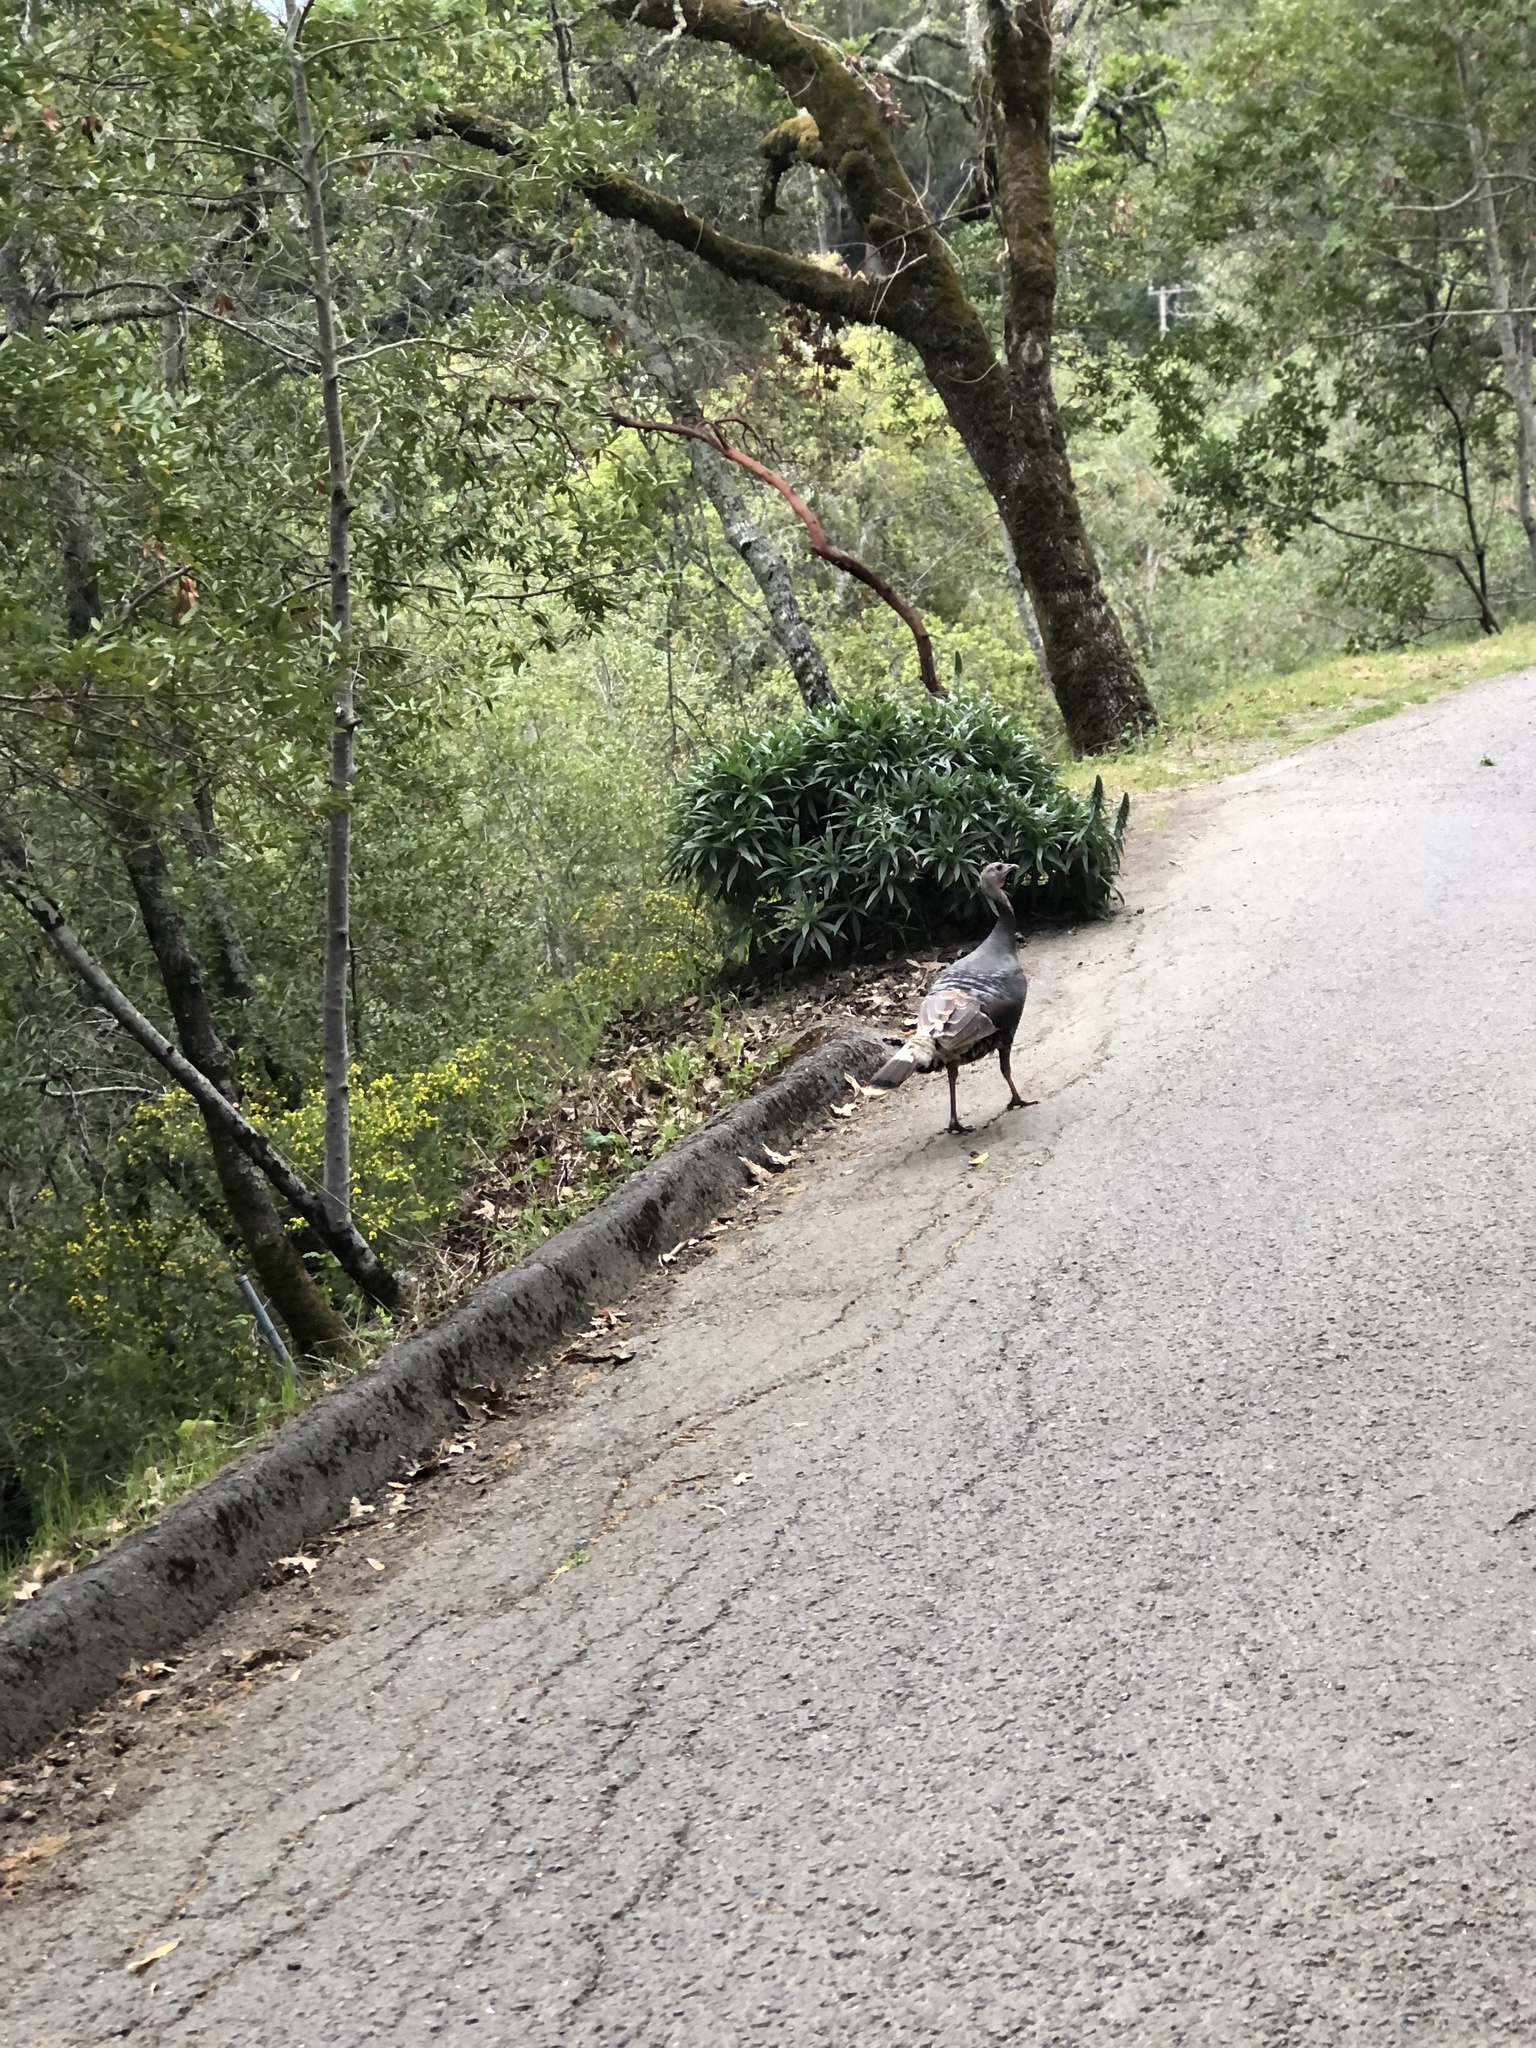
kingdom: Animalia
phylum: Chordata
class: Aves
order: Galliformes
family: Phasianidae
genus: Meleagris
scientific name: Meleagris gallopavo
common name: Wild turkey
